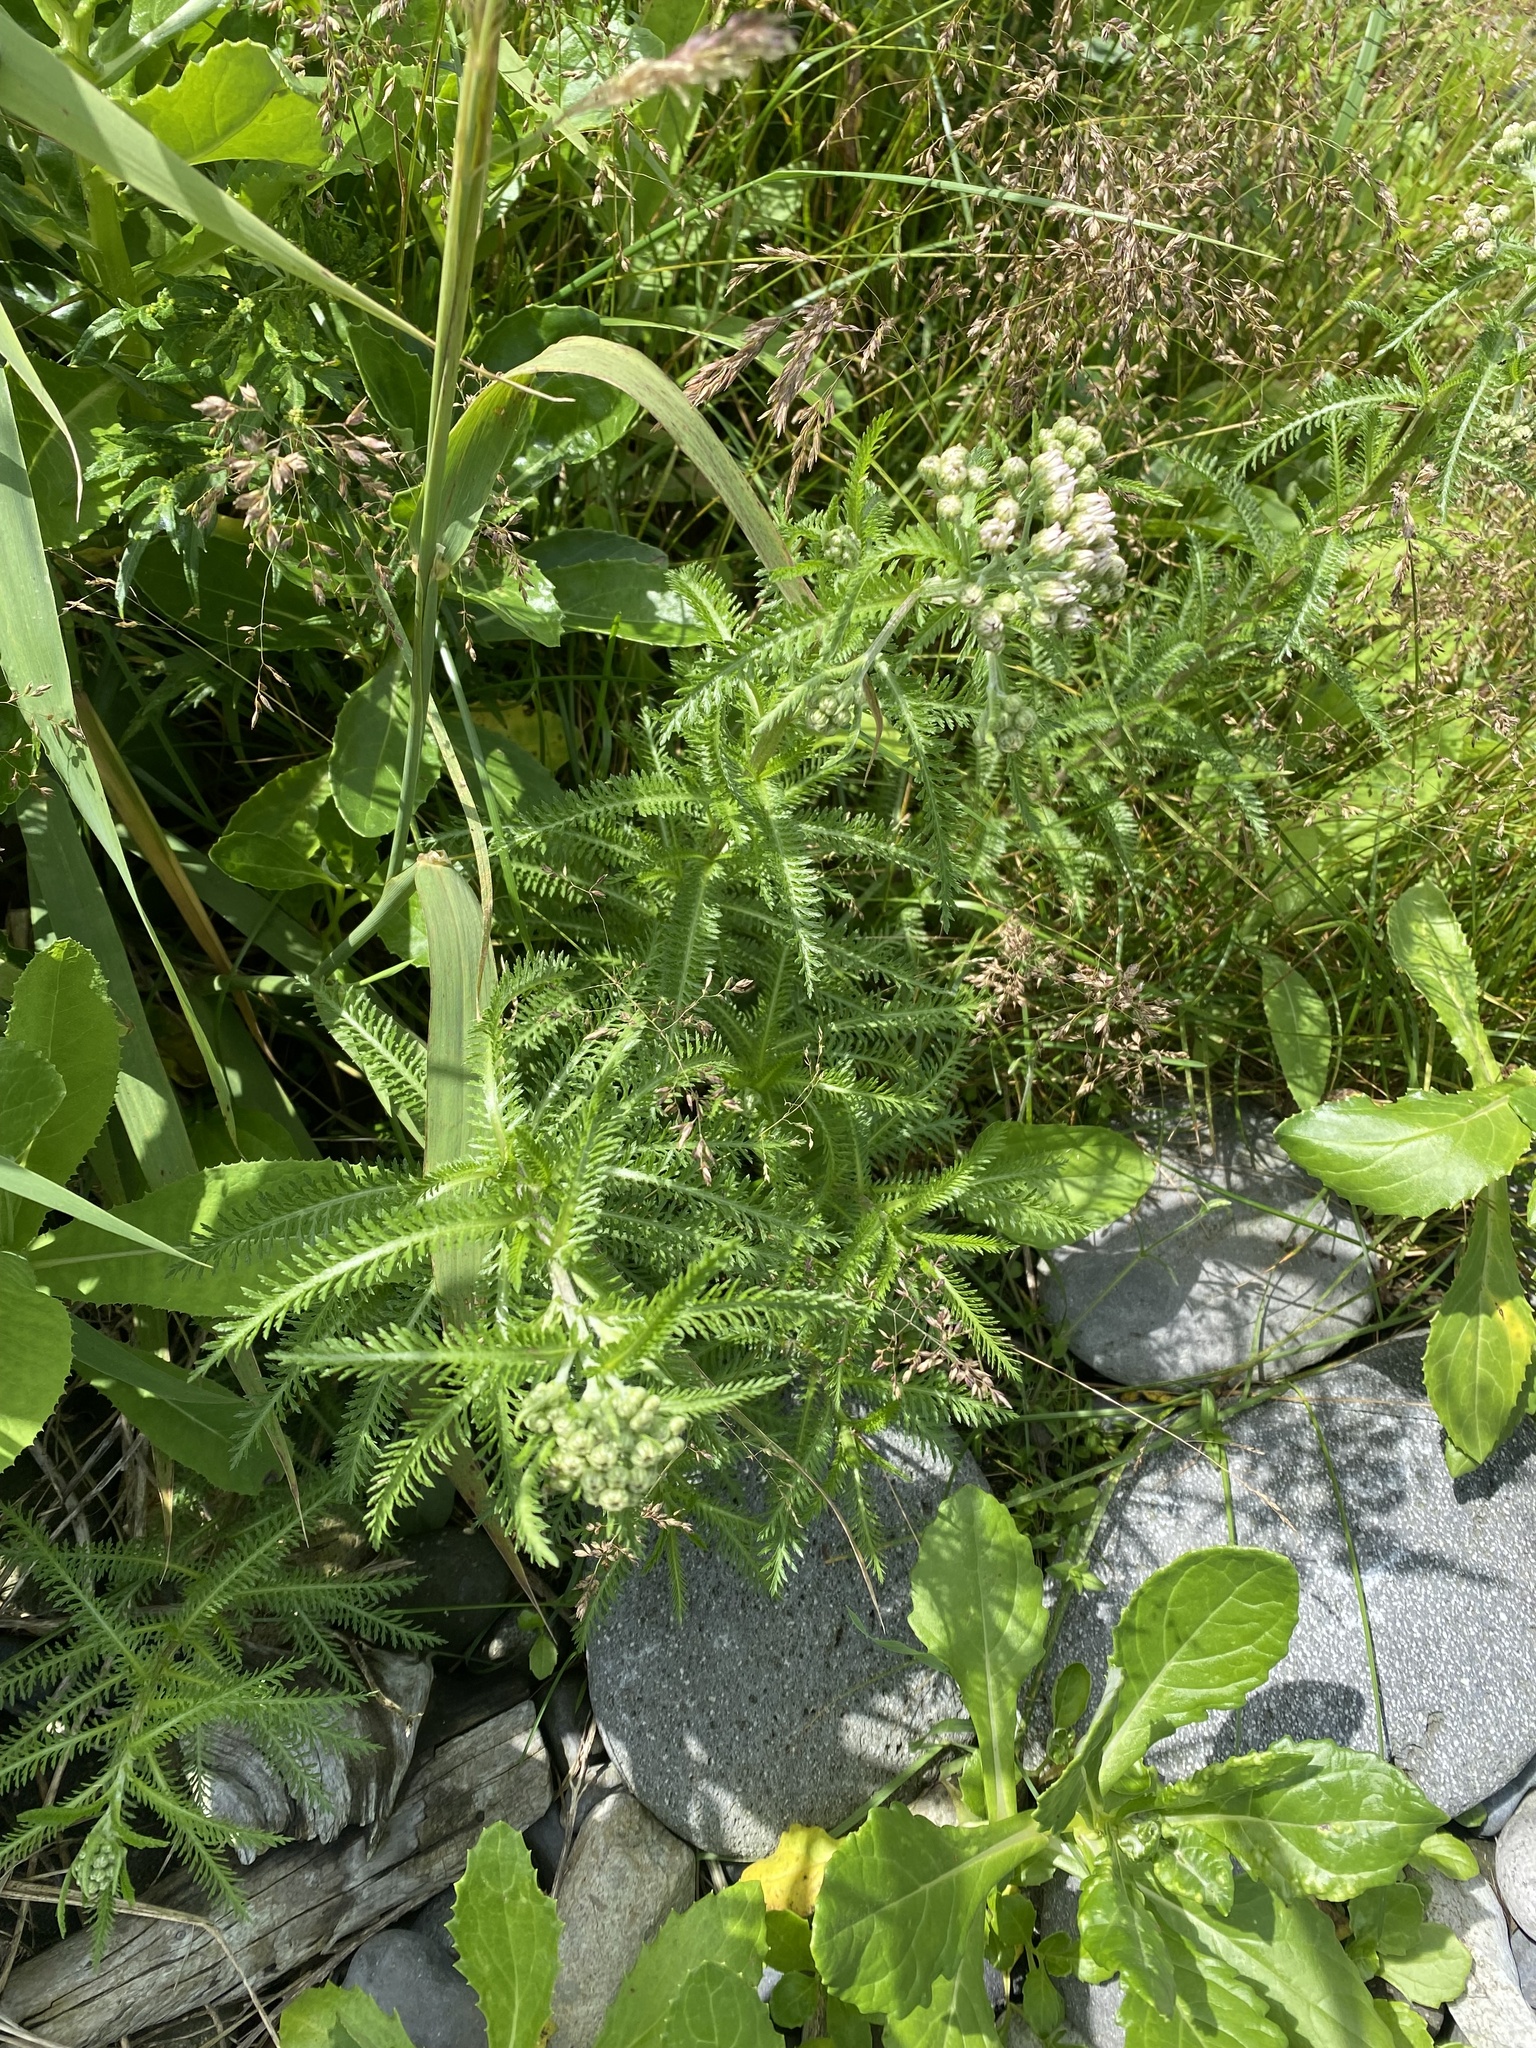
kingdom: Plantae
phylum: Tracheophyta
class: Magnoliopsida
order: Asterales
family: Asteraceae
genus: Achillea
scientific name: Achillea alpina
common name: Siberian yarrow
